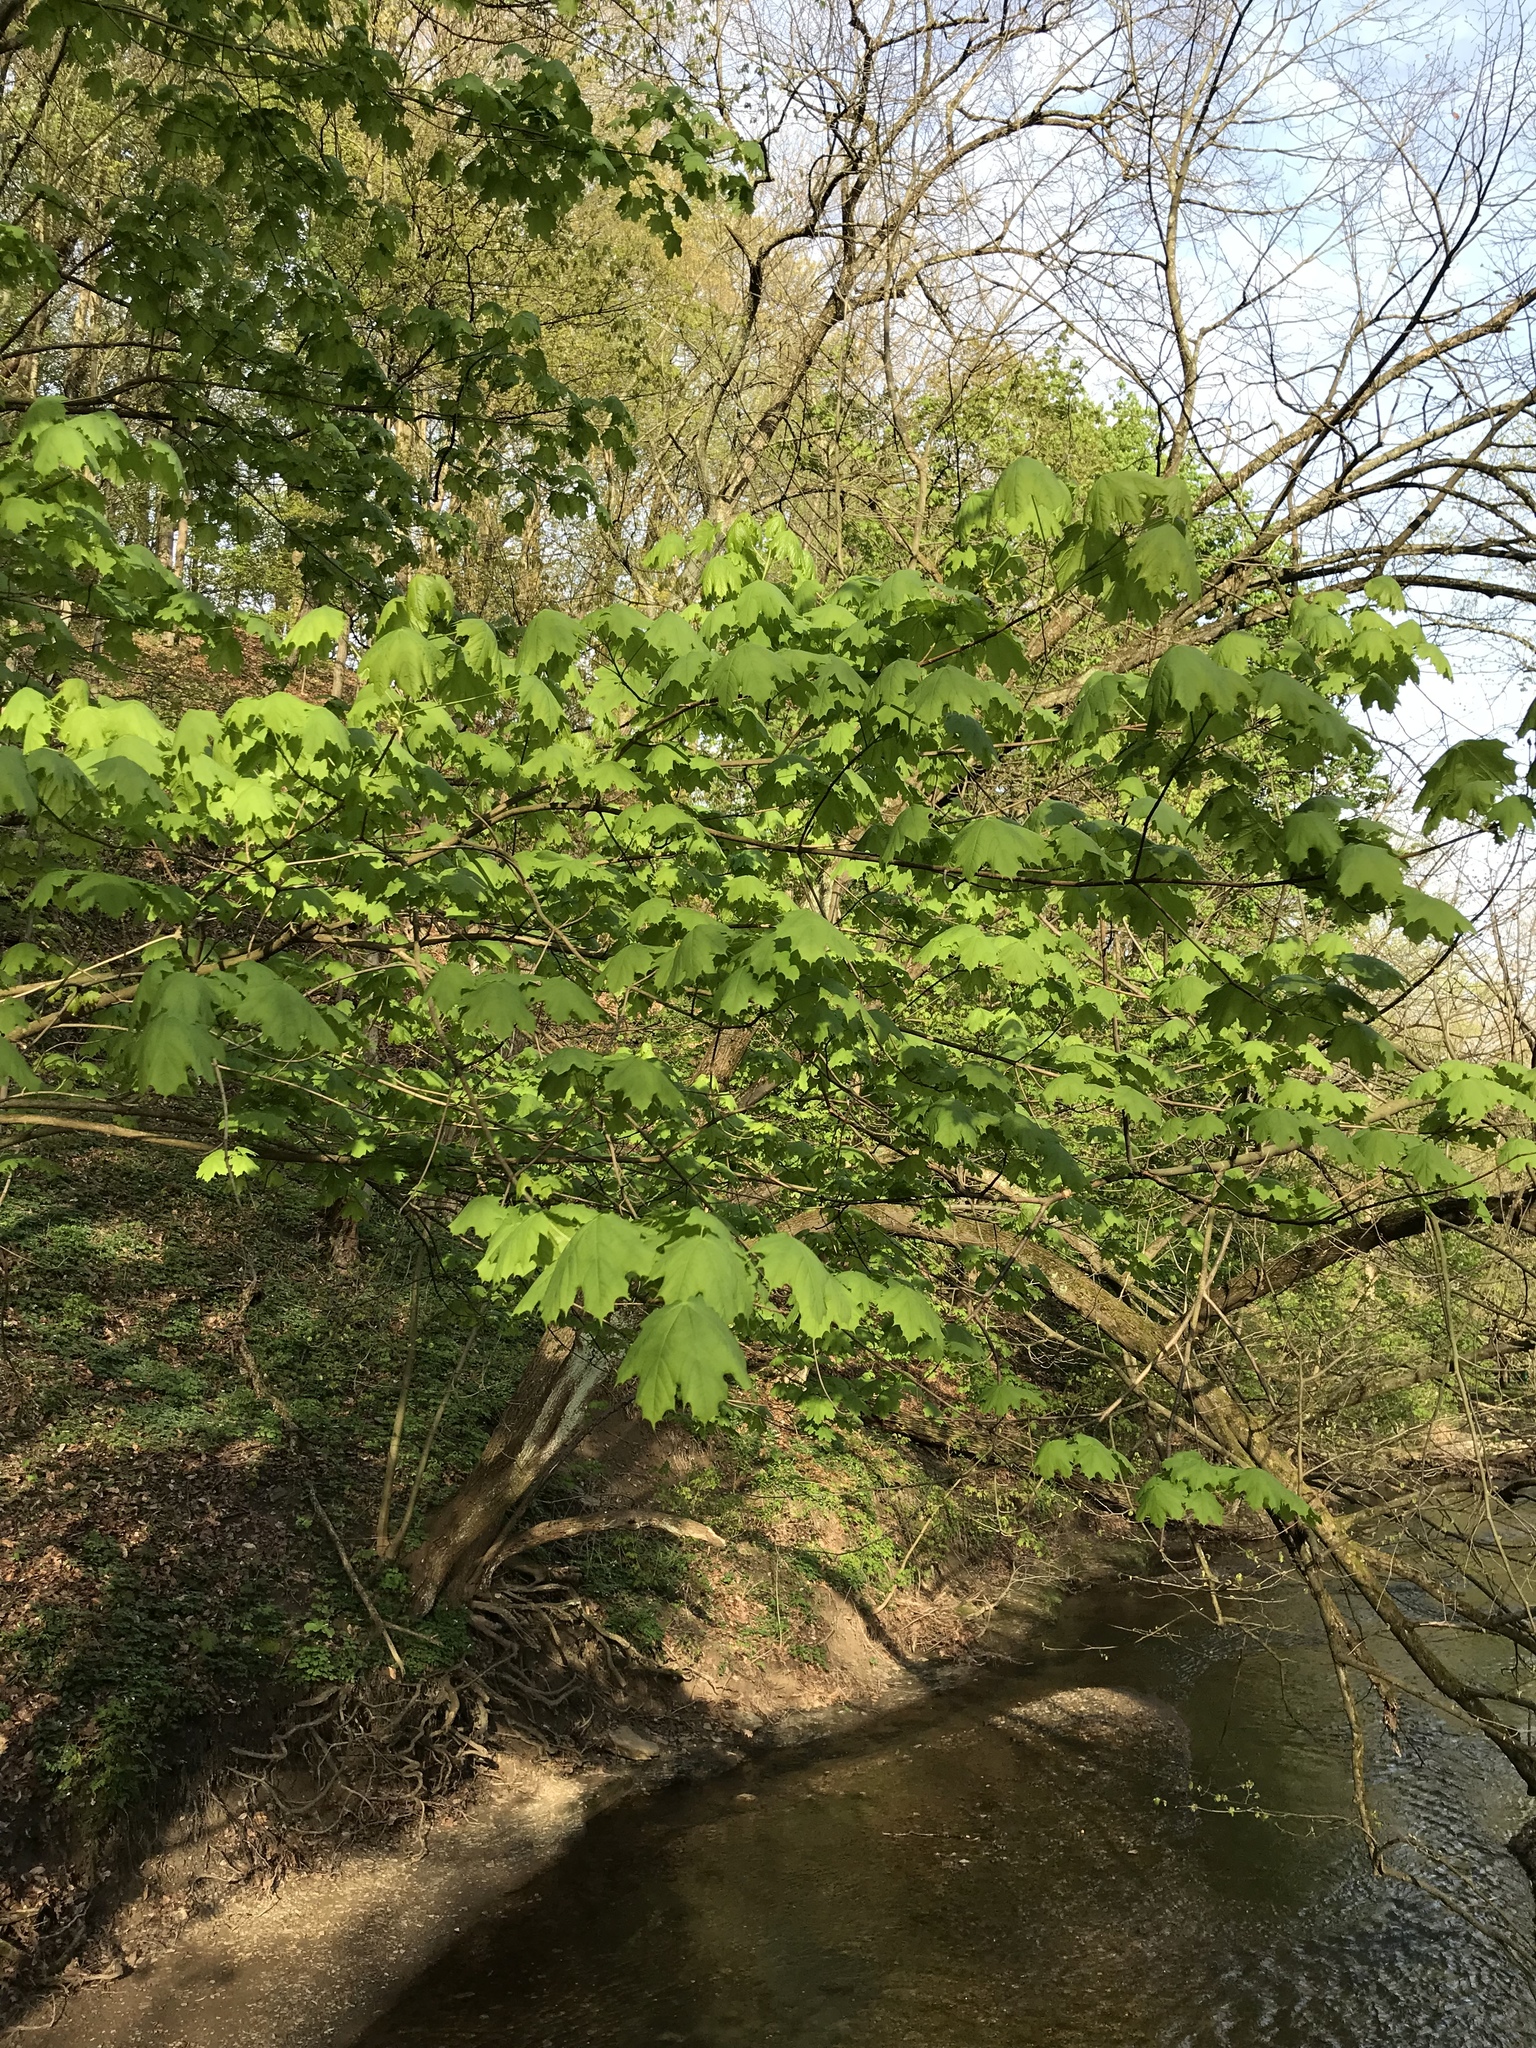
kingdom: Plantae
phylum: Tracheophyta
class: Magnoliopsida
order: Sapindales
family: Sapindaceae
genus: Acer
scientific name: Acer platanoides
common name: Norway maple
